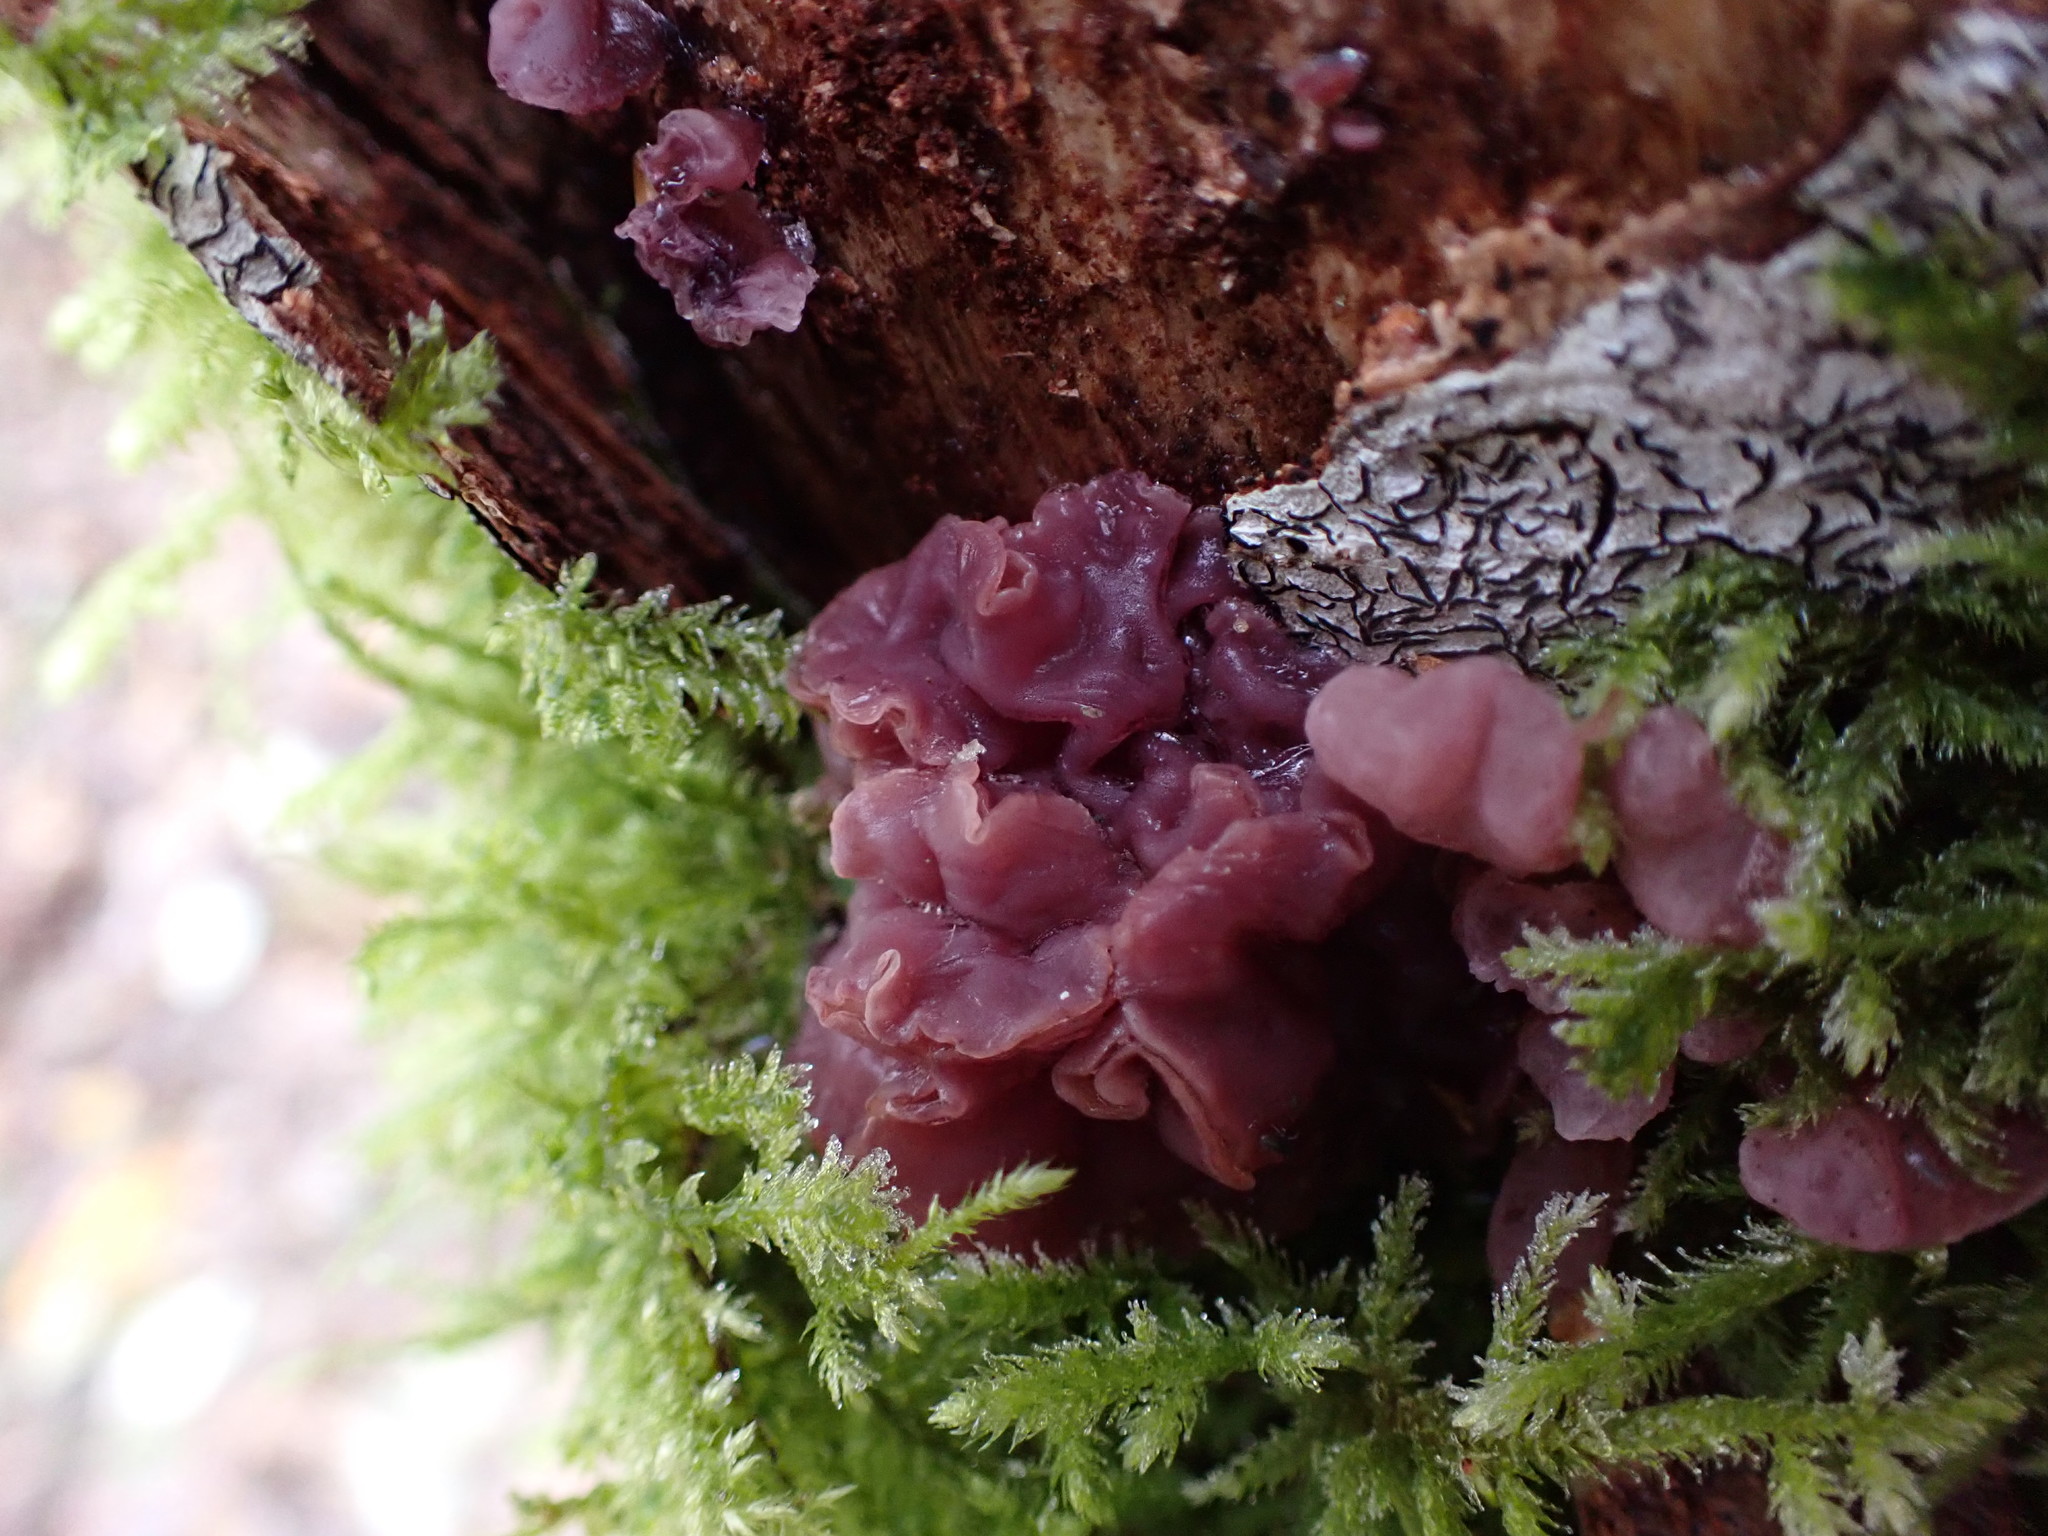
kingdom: Fungi
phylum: Ascomycota
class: Leotiomycetes
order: Helotiales
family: Gelatinodiscaceae
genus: Ascocoryne
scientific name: Ascocoryne sarcoides
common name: Purple jellydisc
